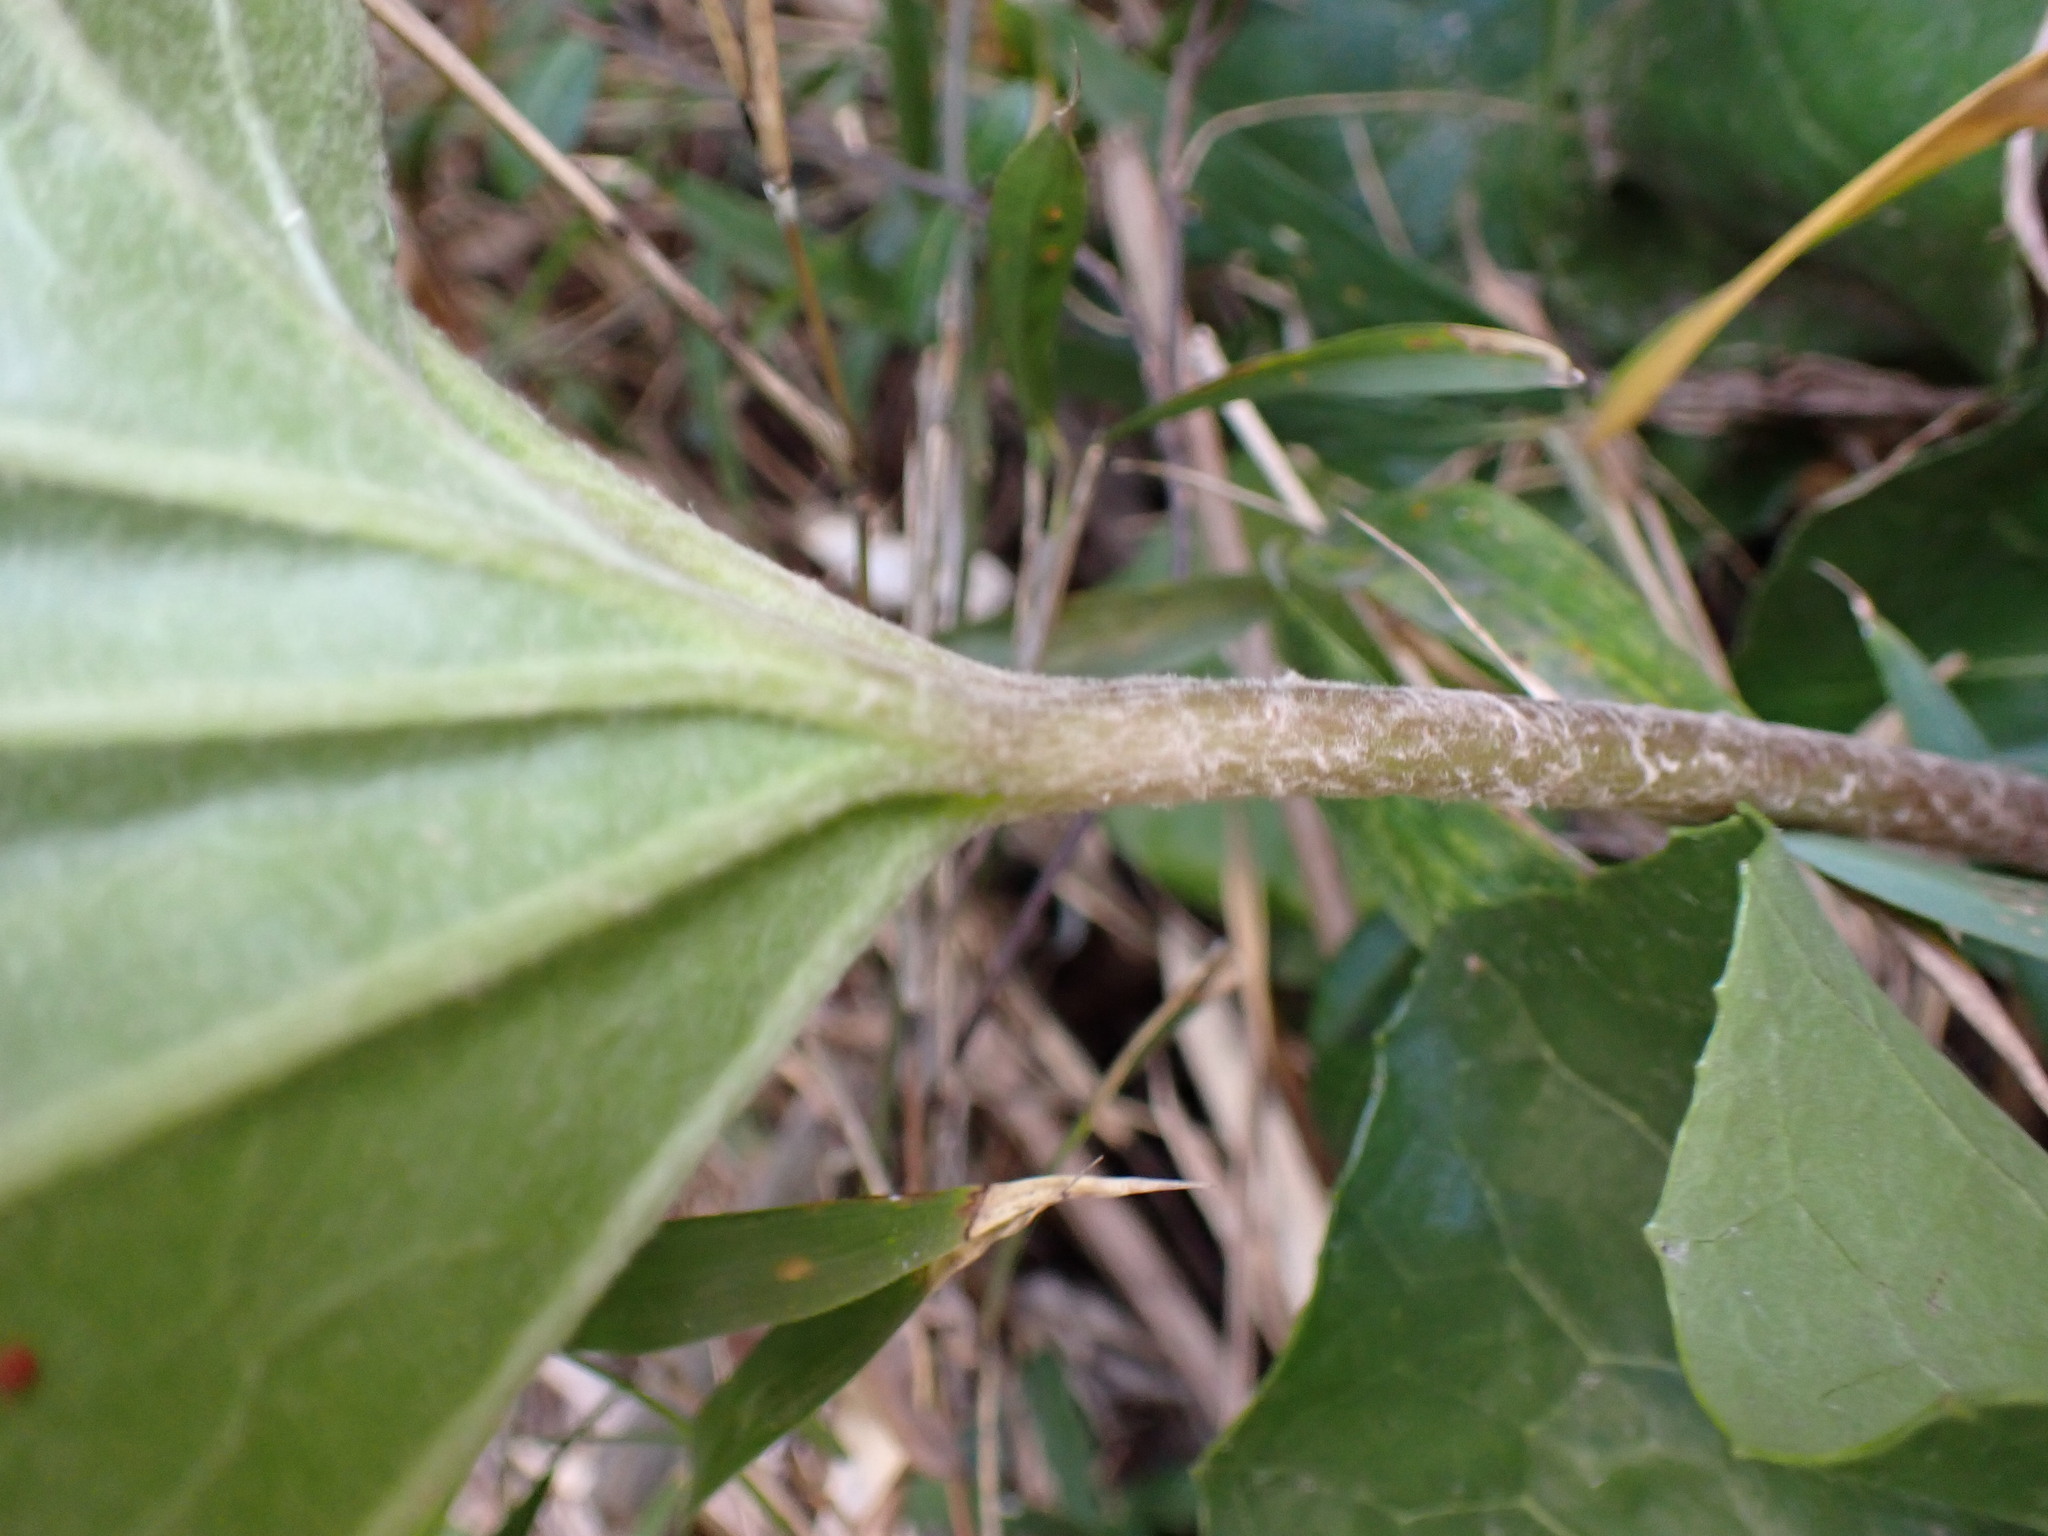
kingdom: Plantae
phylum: Tracheophyta
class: Magnoliopsida
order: Asterales
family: Asteraceae
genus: Farfugium
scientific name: Farfugium japonicum
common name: Leopardplant
